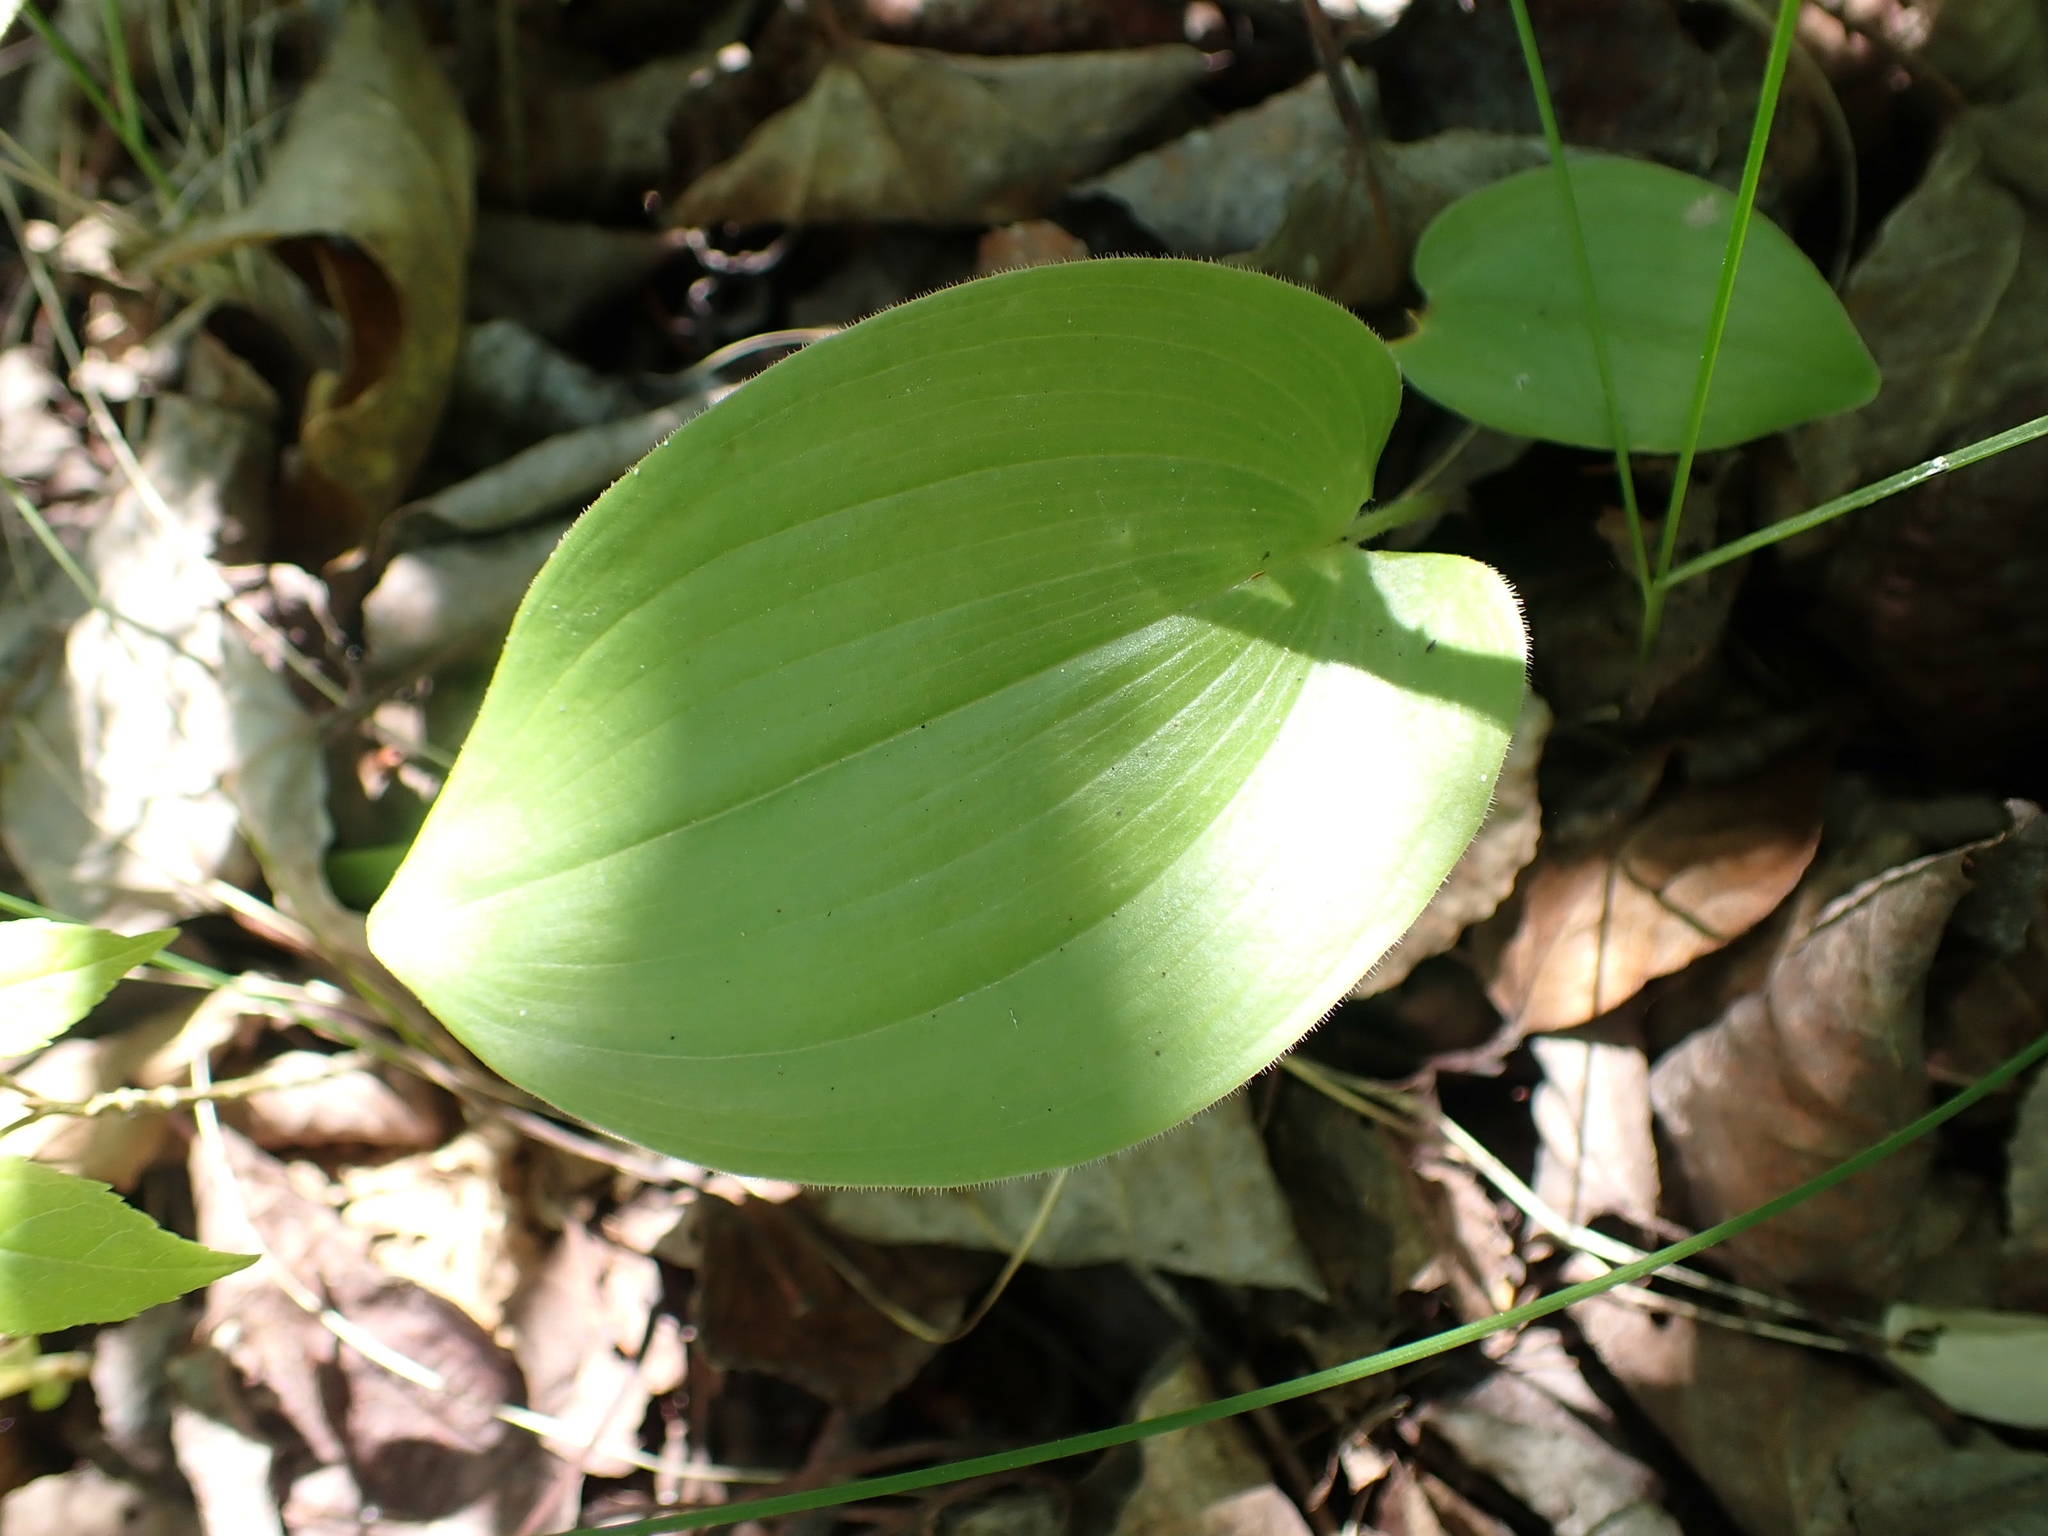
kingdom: Plantae
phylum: Tracheophyta
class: Liliopsida
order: Asparagales
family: Asparagaceae
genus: Maianthemum
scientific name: Maianthemum canadense
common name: False lily-of-the-valley
